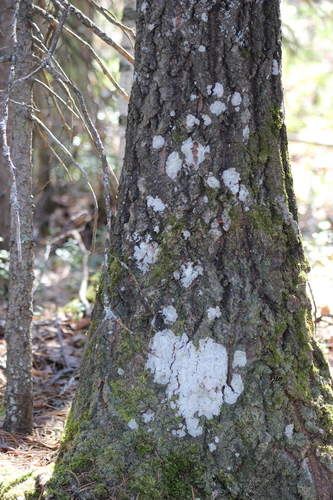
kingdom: Fungi
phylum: Ascomycota
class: Lecanoromycetes
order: Ostropales
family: Phlyctidaceae
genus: Phlyctis
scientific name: Phlyctis argena
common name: Whitewash lichen
